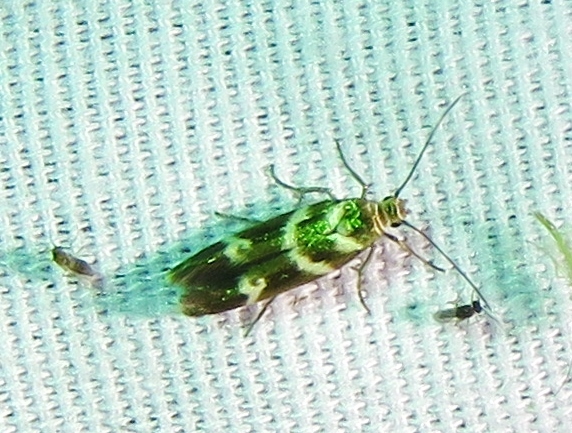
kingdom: Animalia
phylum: Arthropoda
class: Insecta
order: Lepidoptera
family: Scythrididae
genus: Scythris
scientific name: Scythris trivinctella
